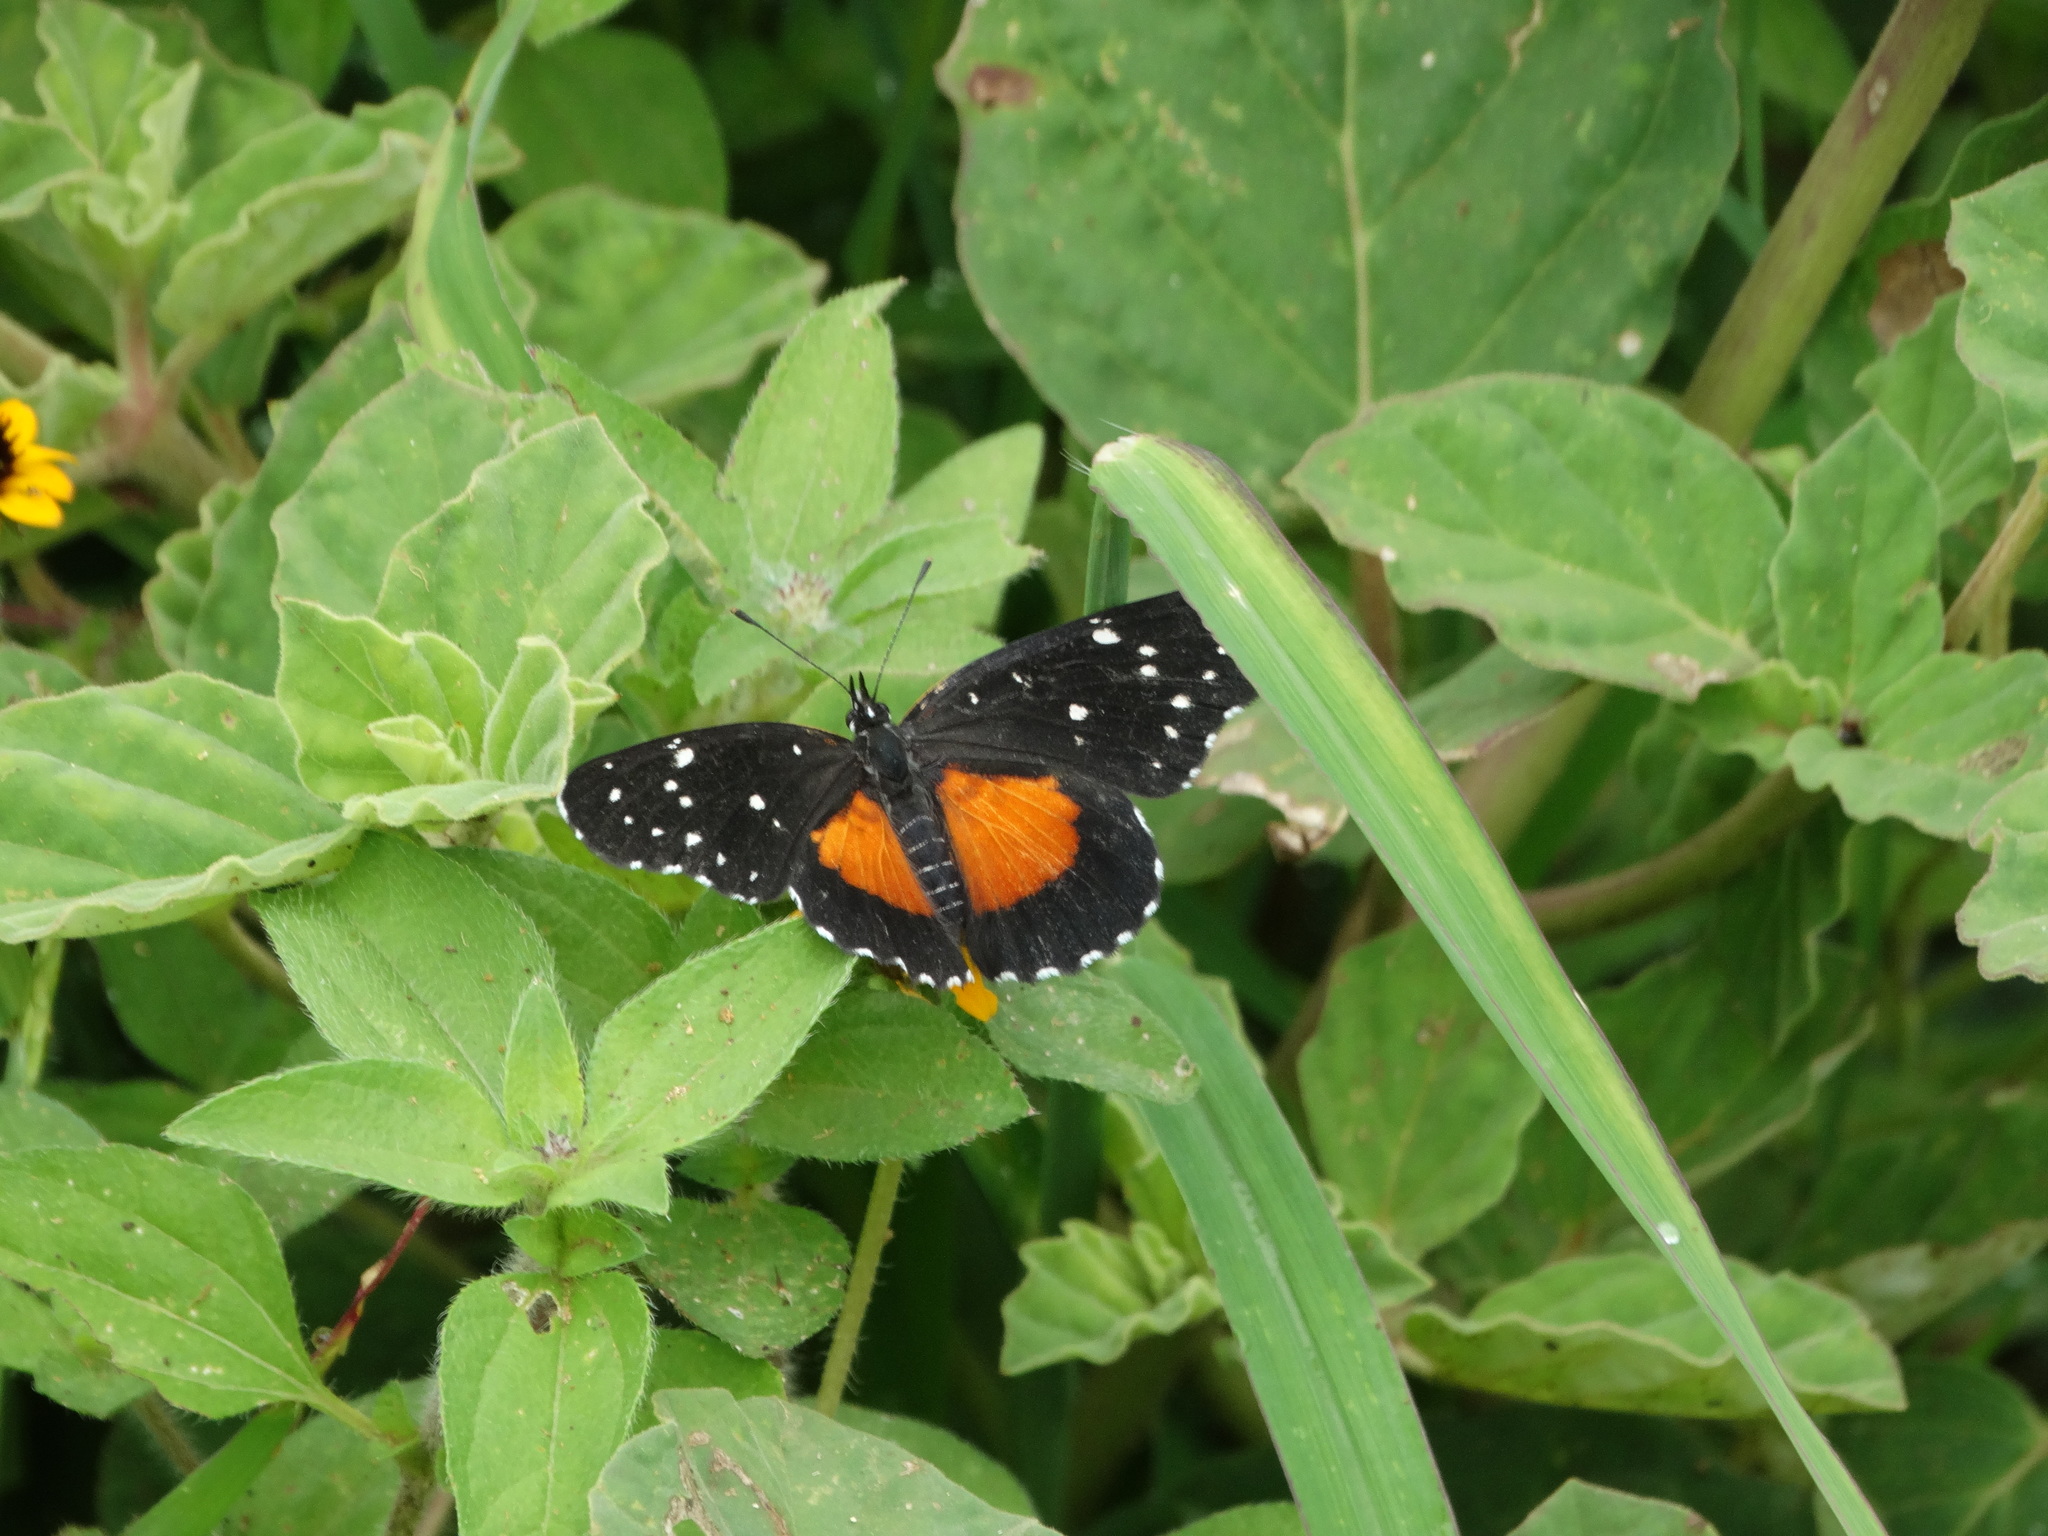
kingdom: Animalia
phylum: Arthropoda
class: Insecta
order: Lepidoptera
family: Nymphalidae
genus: Chlosyne
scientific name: Chlosyne janais
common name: Crimson patch
